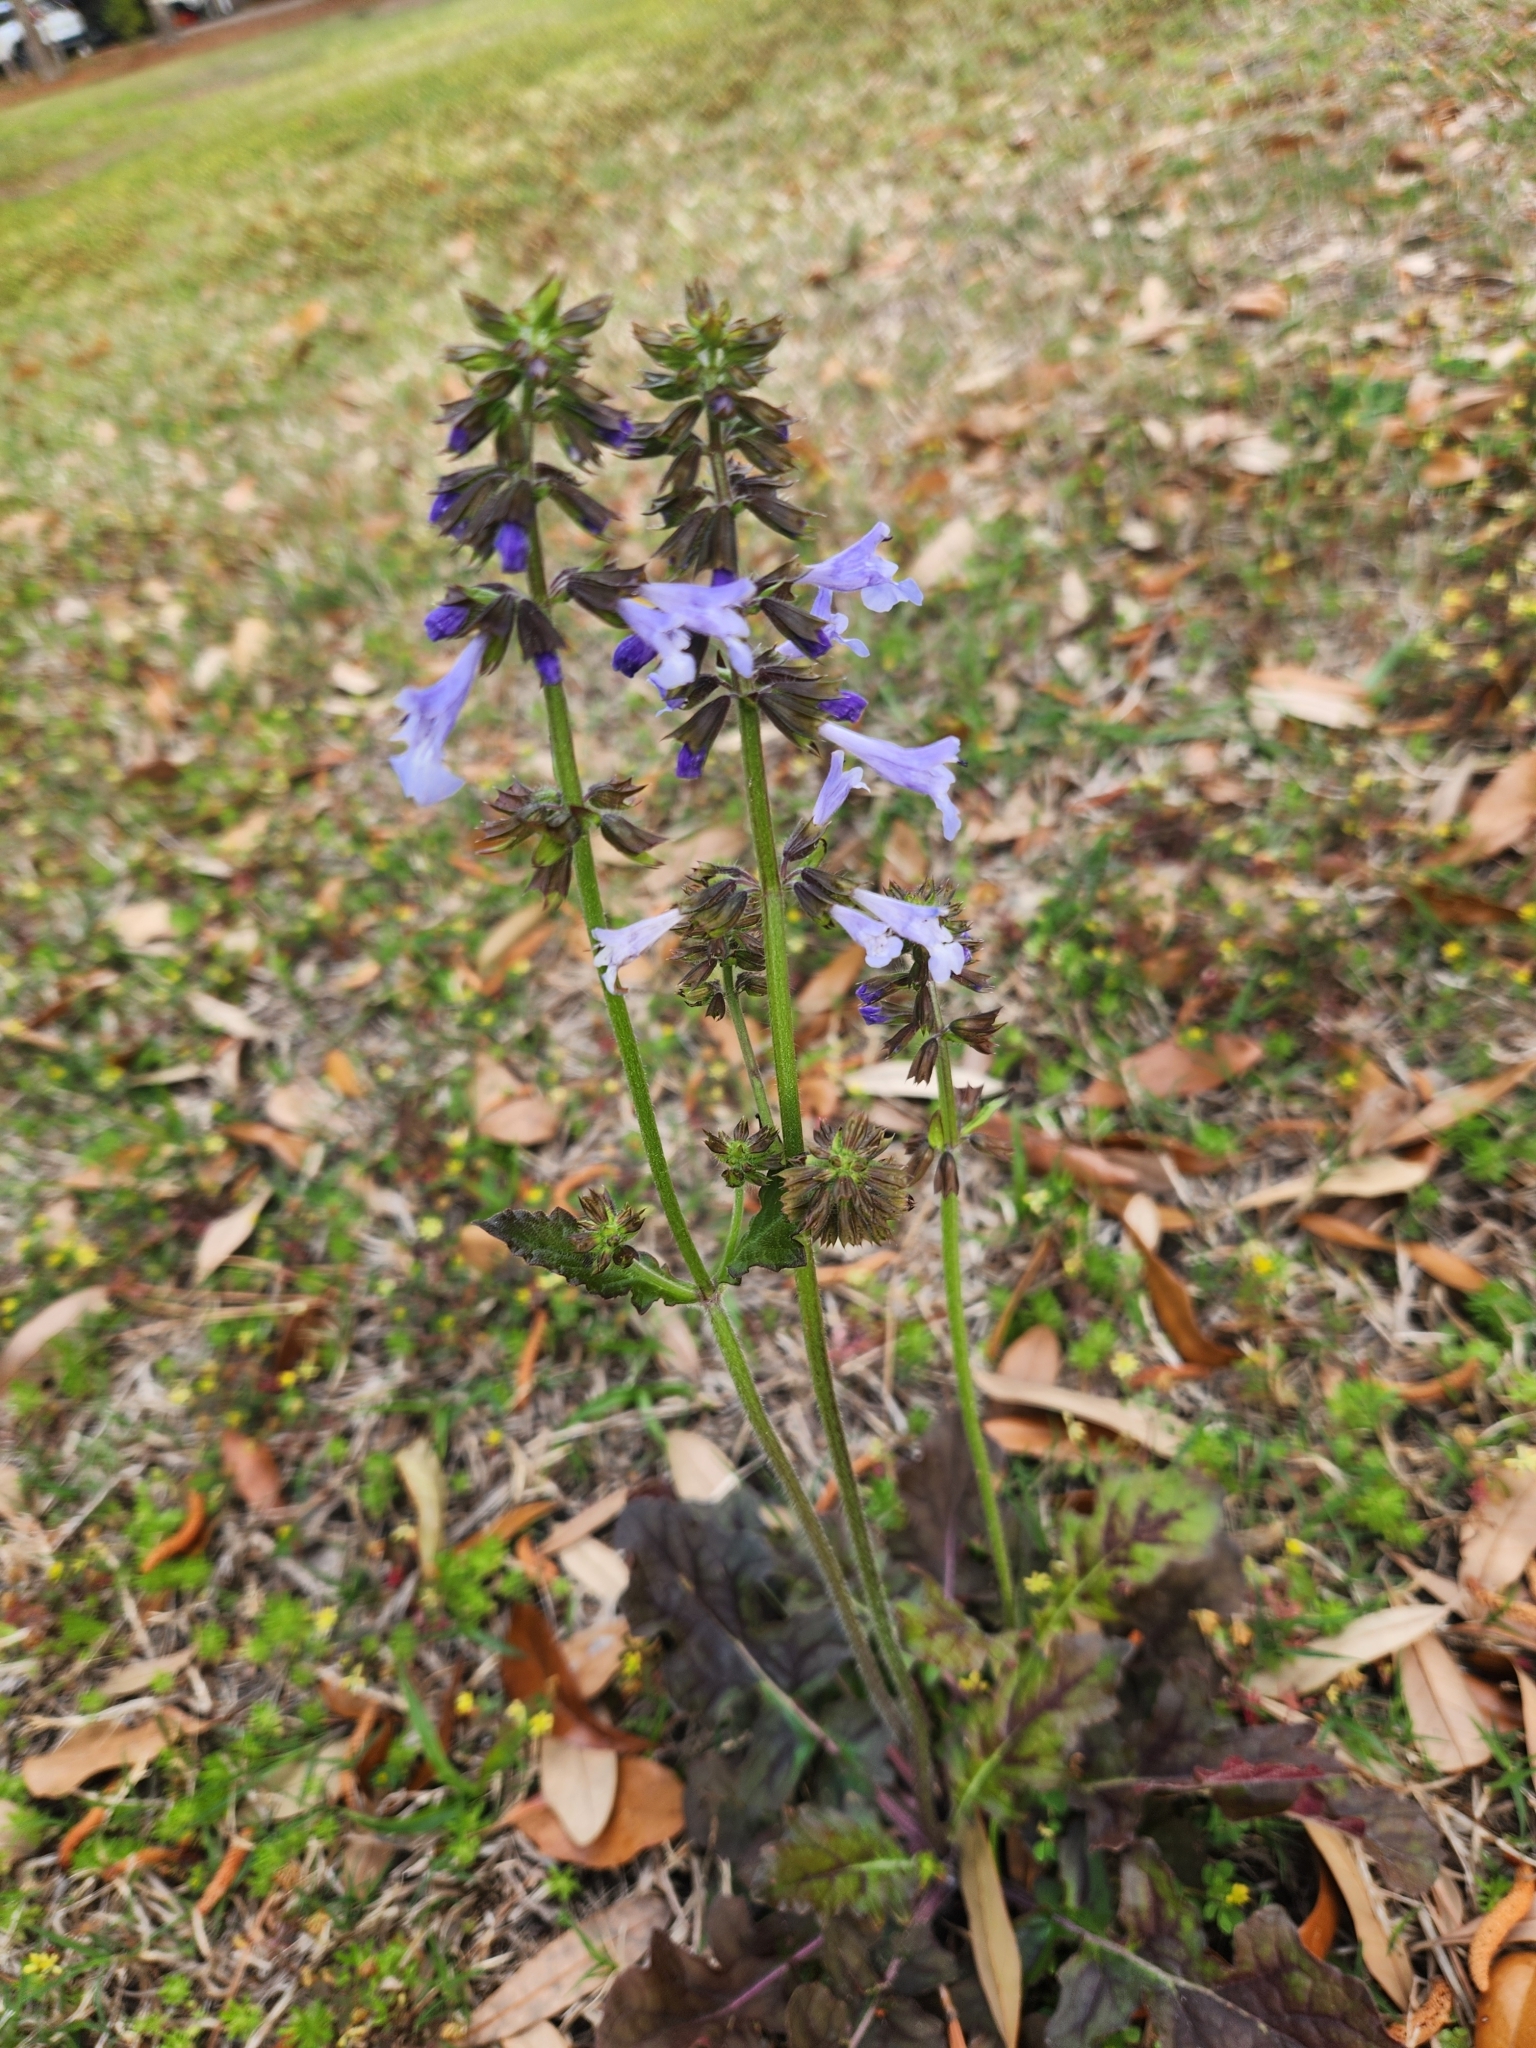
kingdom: Plantae
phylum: Tracheophyta
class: Magnoliopsida
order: Lamiales
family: Lamiaceae
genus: Salvia
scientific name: Salvia lyrata
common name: Cancerweed
